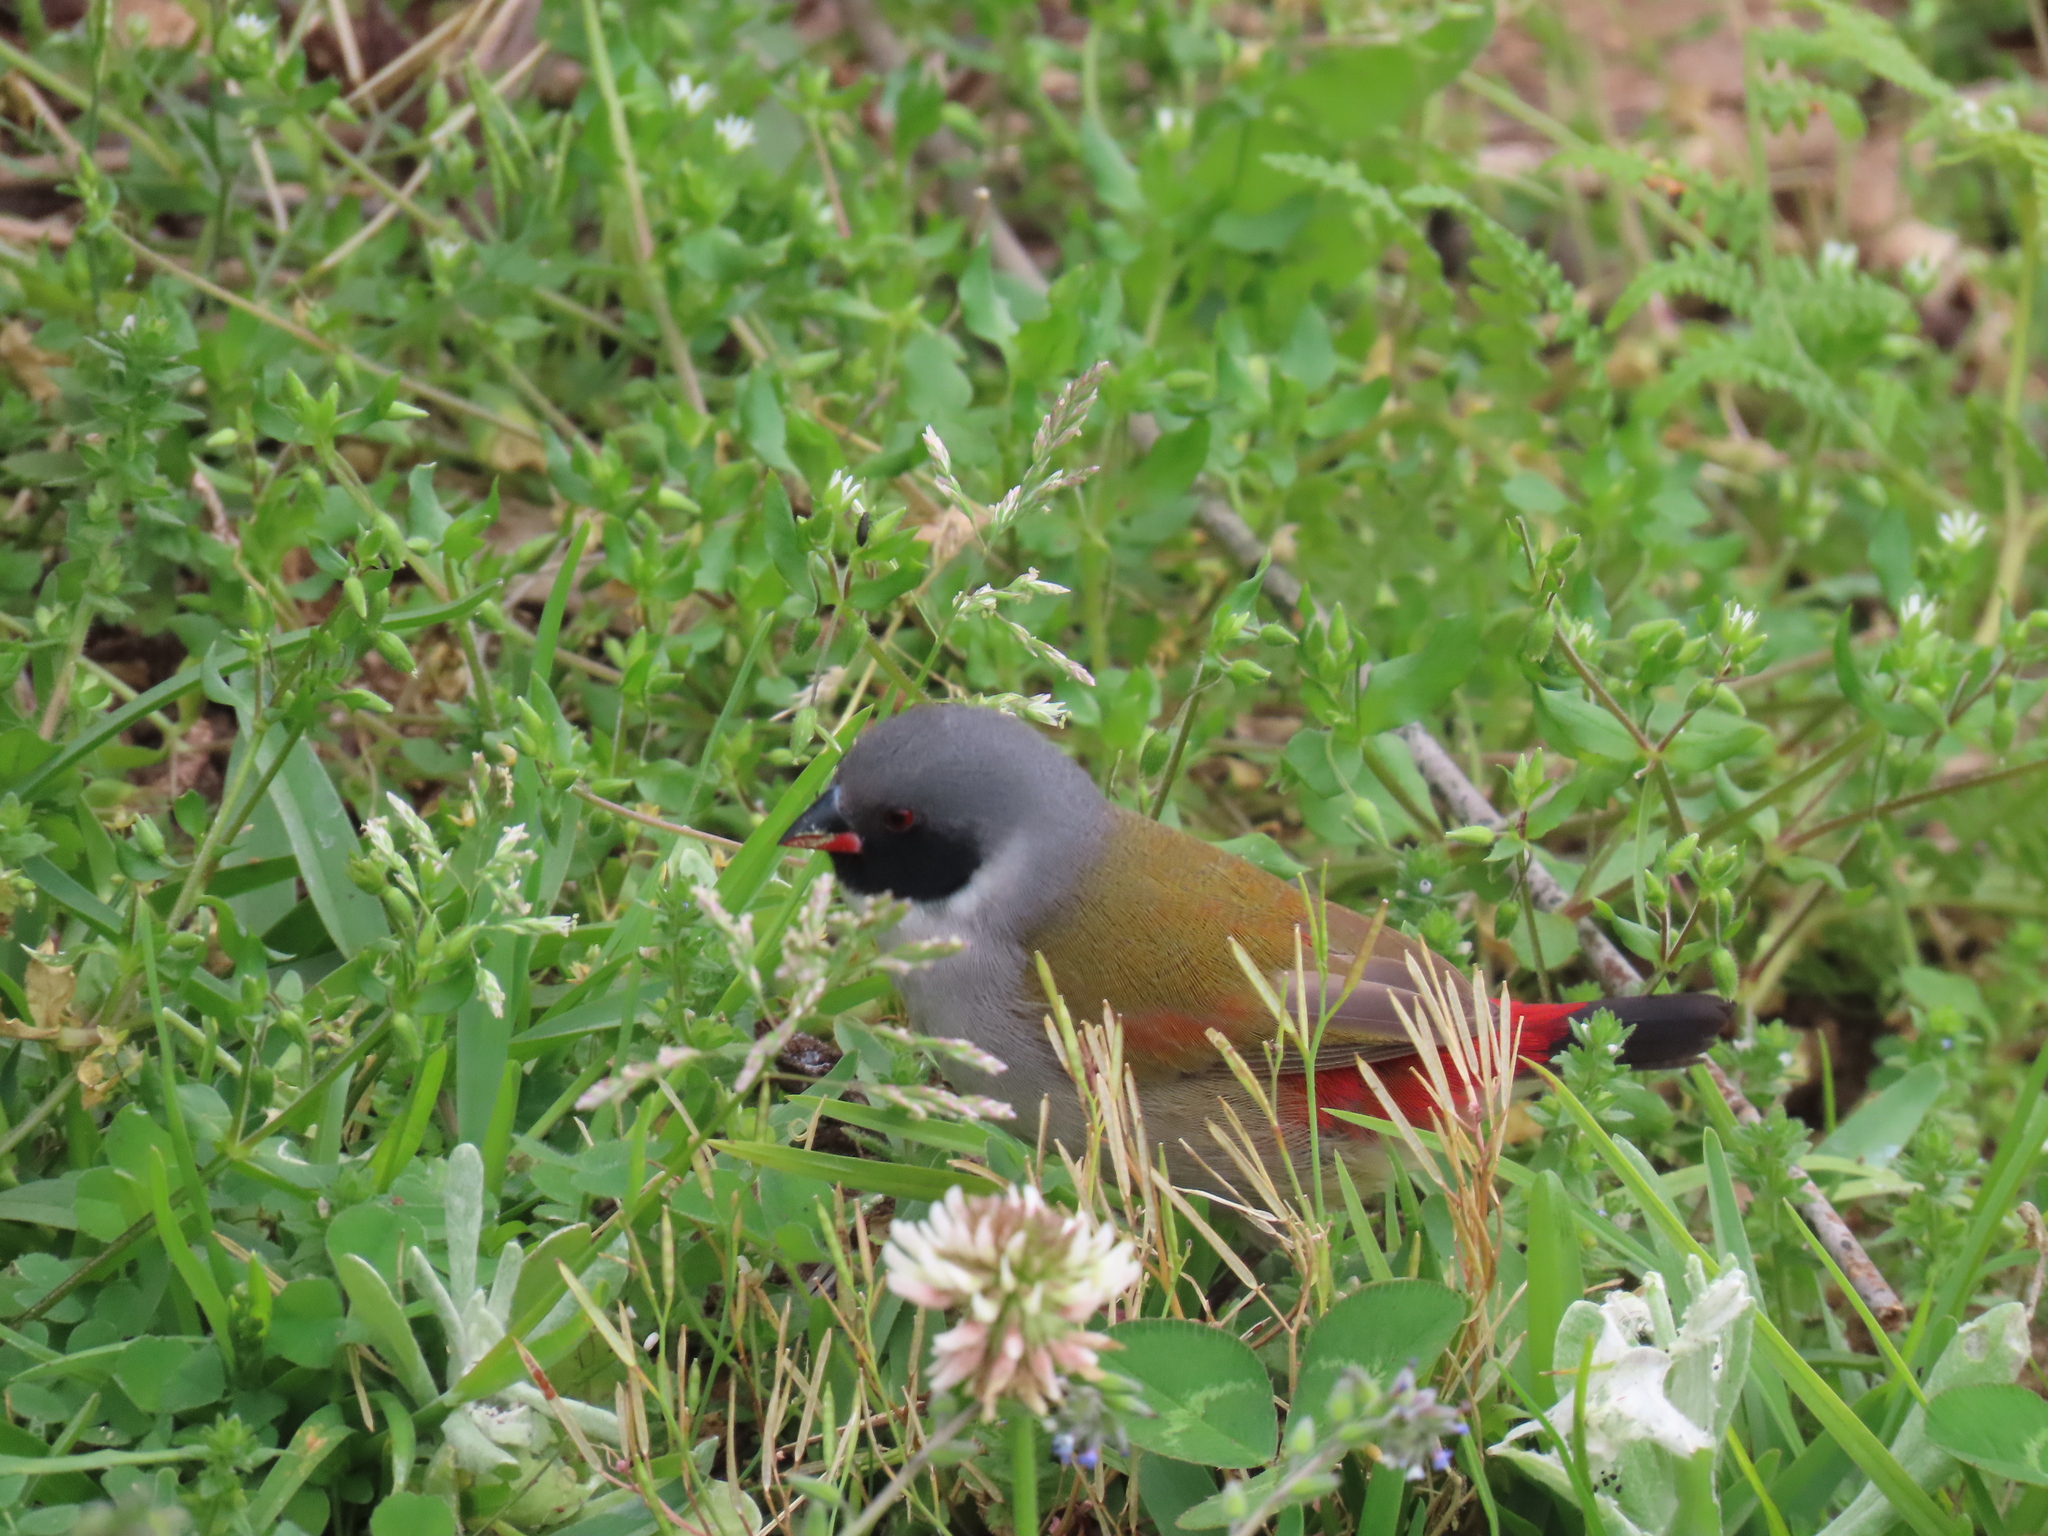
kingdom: Animalia
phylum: Chordata
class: Aves
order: Passeriformes
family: Estrildidae
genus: Coccopygia
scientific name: Coccopygia melanotis
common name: Swee waxbill
